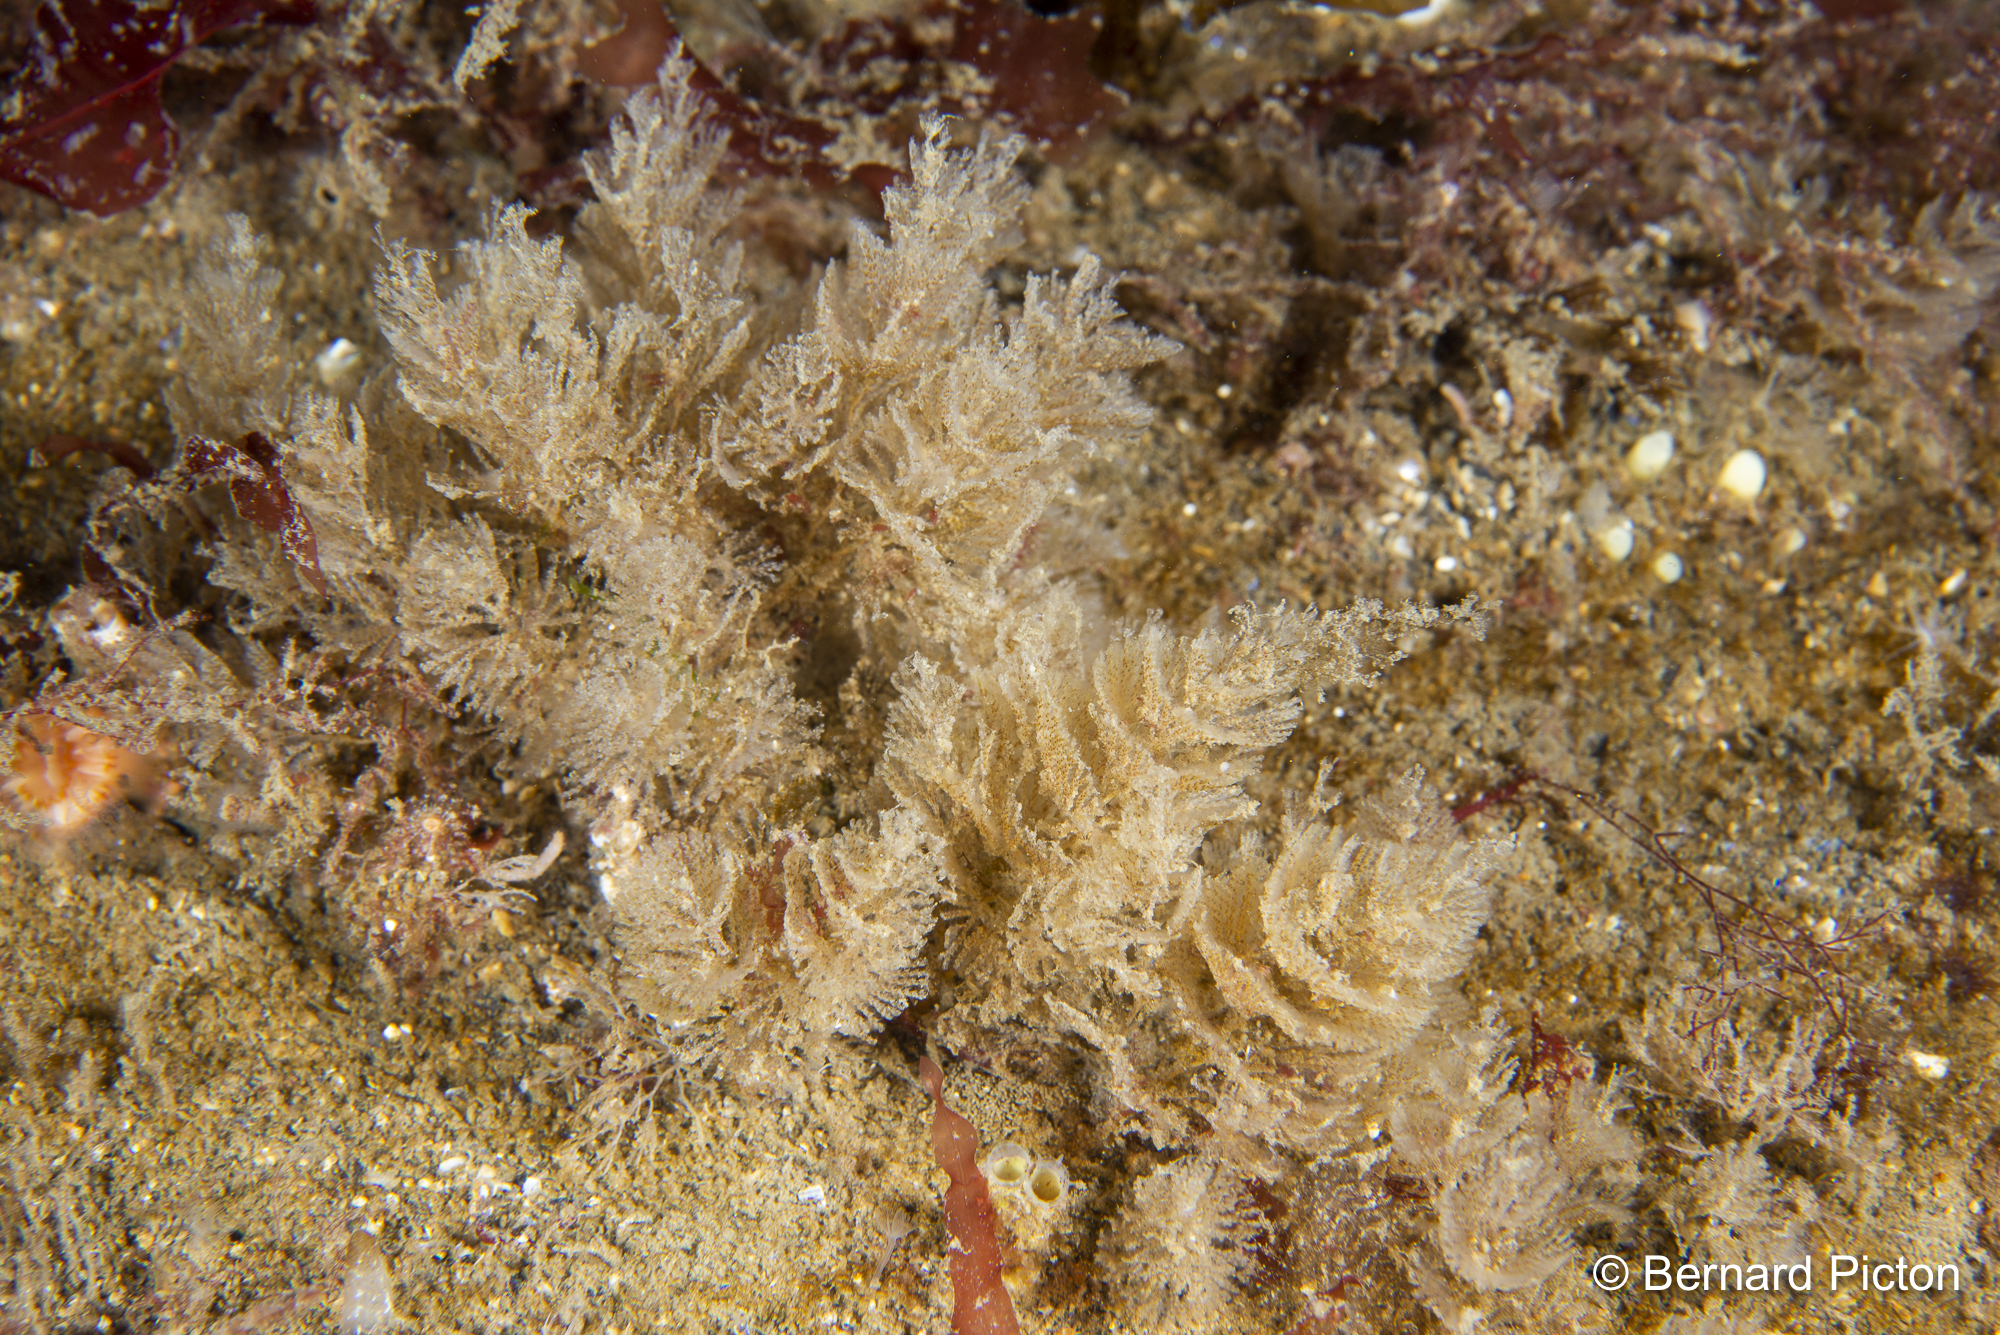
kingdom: Animalia
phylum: Bryozoa
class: Gymnolaemata
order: Cheilostomatida
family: Bugulidae
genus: Crisularia
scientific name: Crisularia plumosa
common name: Feather bryozoan
